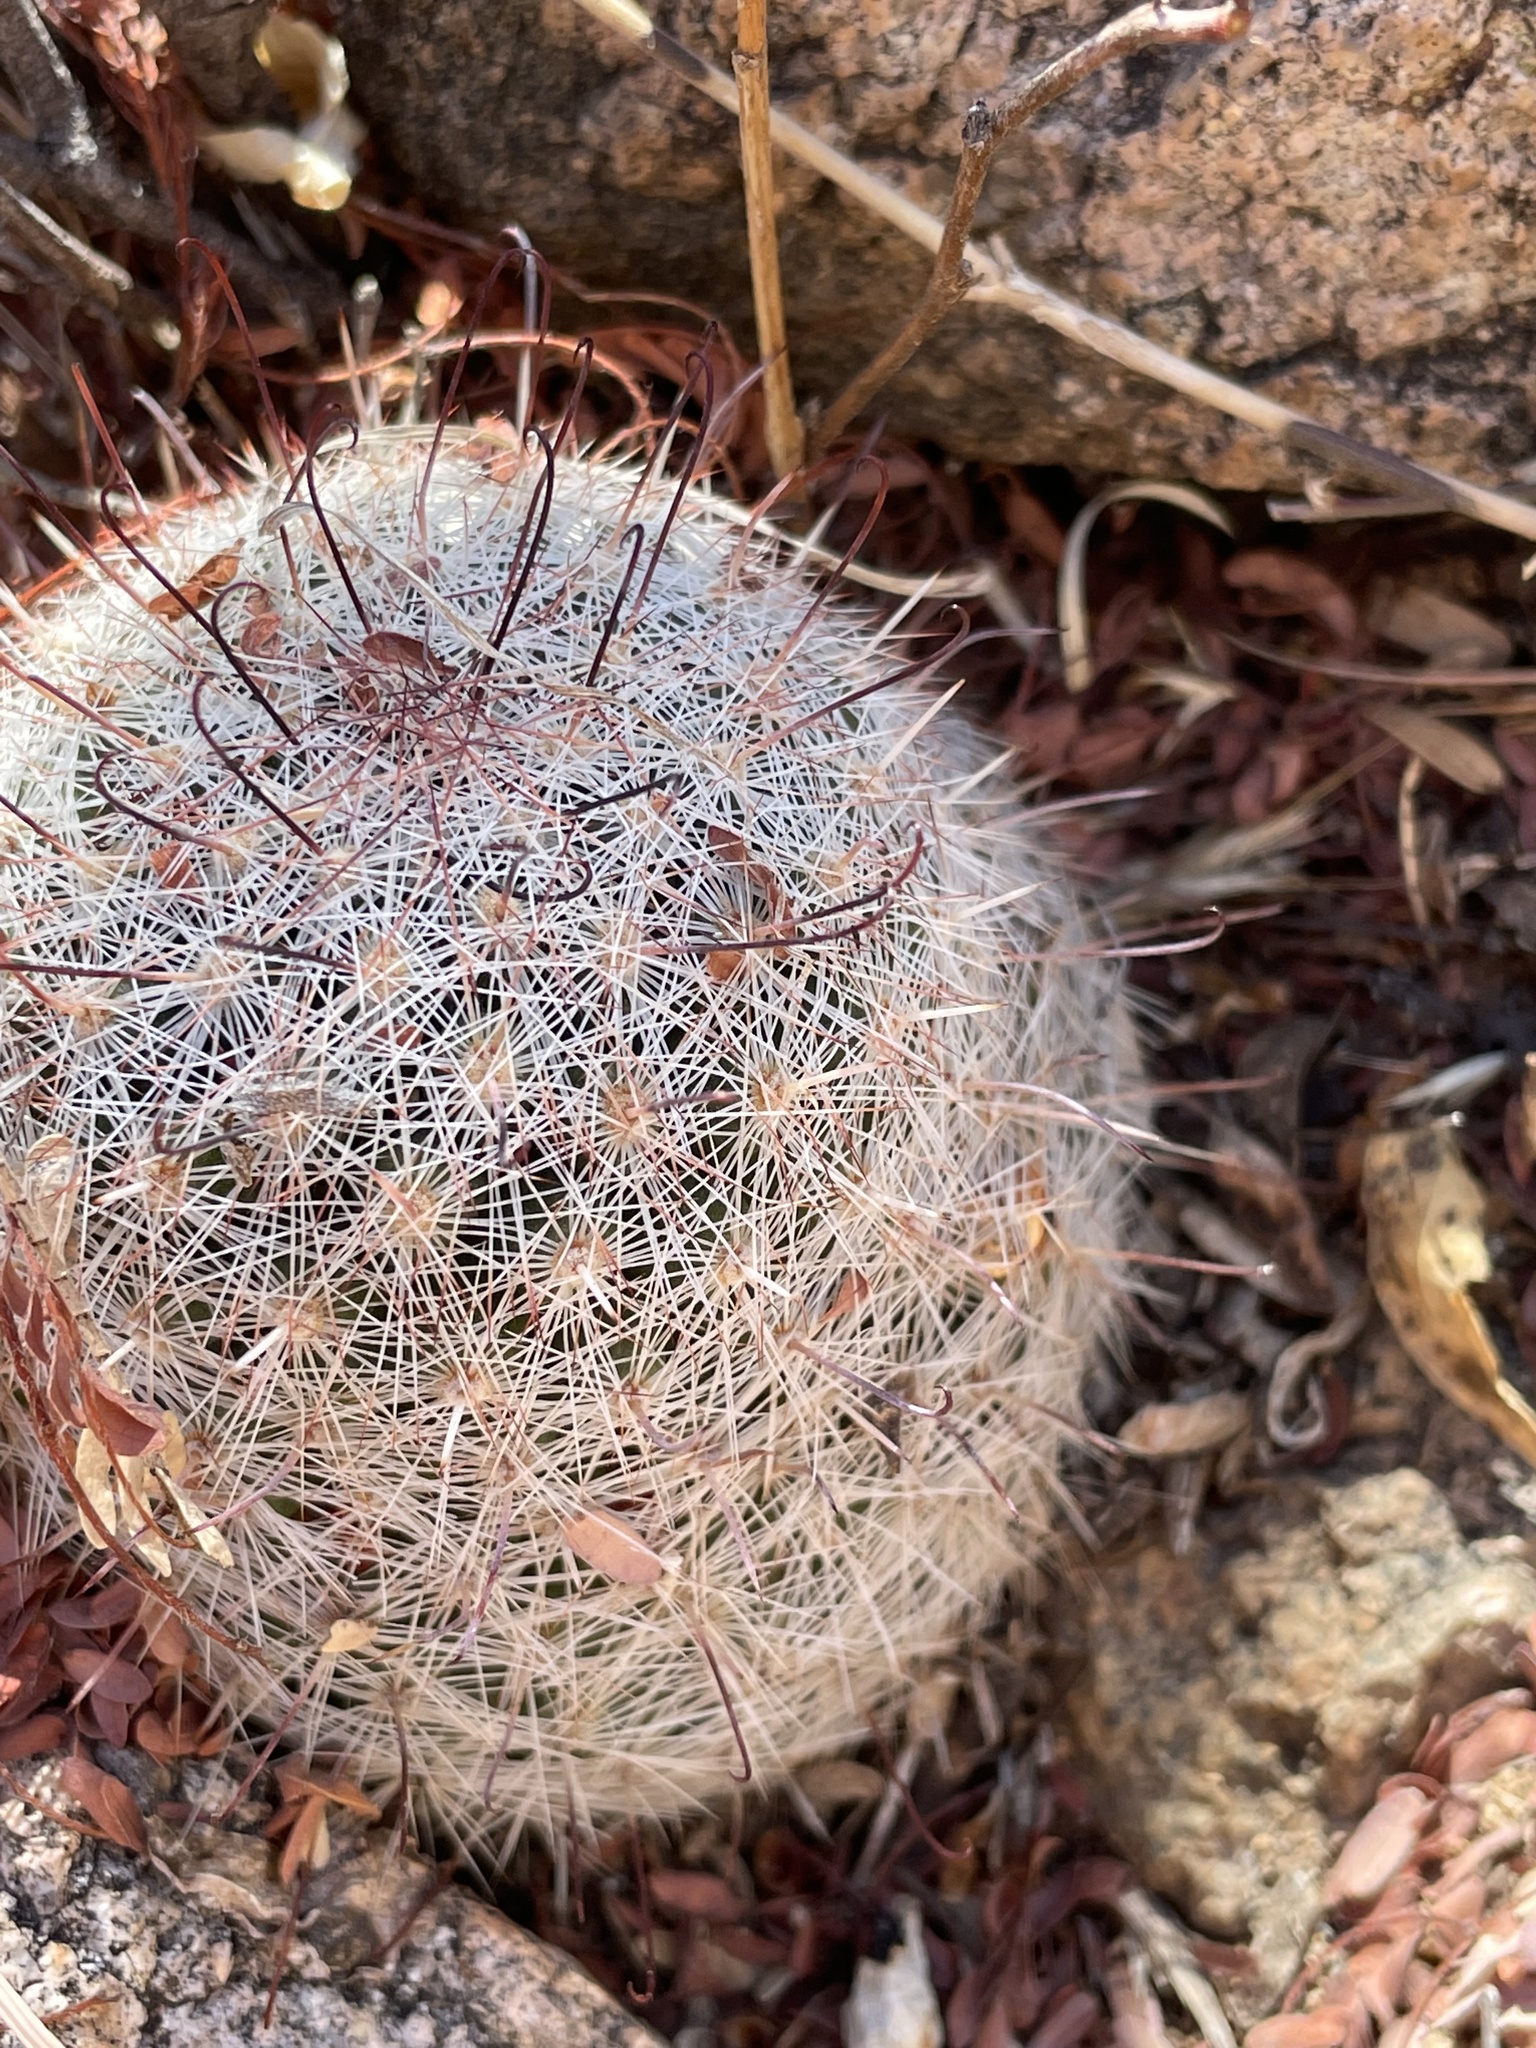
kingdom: Plantae
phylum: Tracheophyta
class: Magnoliopsida
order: Caryophyllales
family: Cactaceae
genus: Cochemiea
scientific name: Cochemiea grahamii
